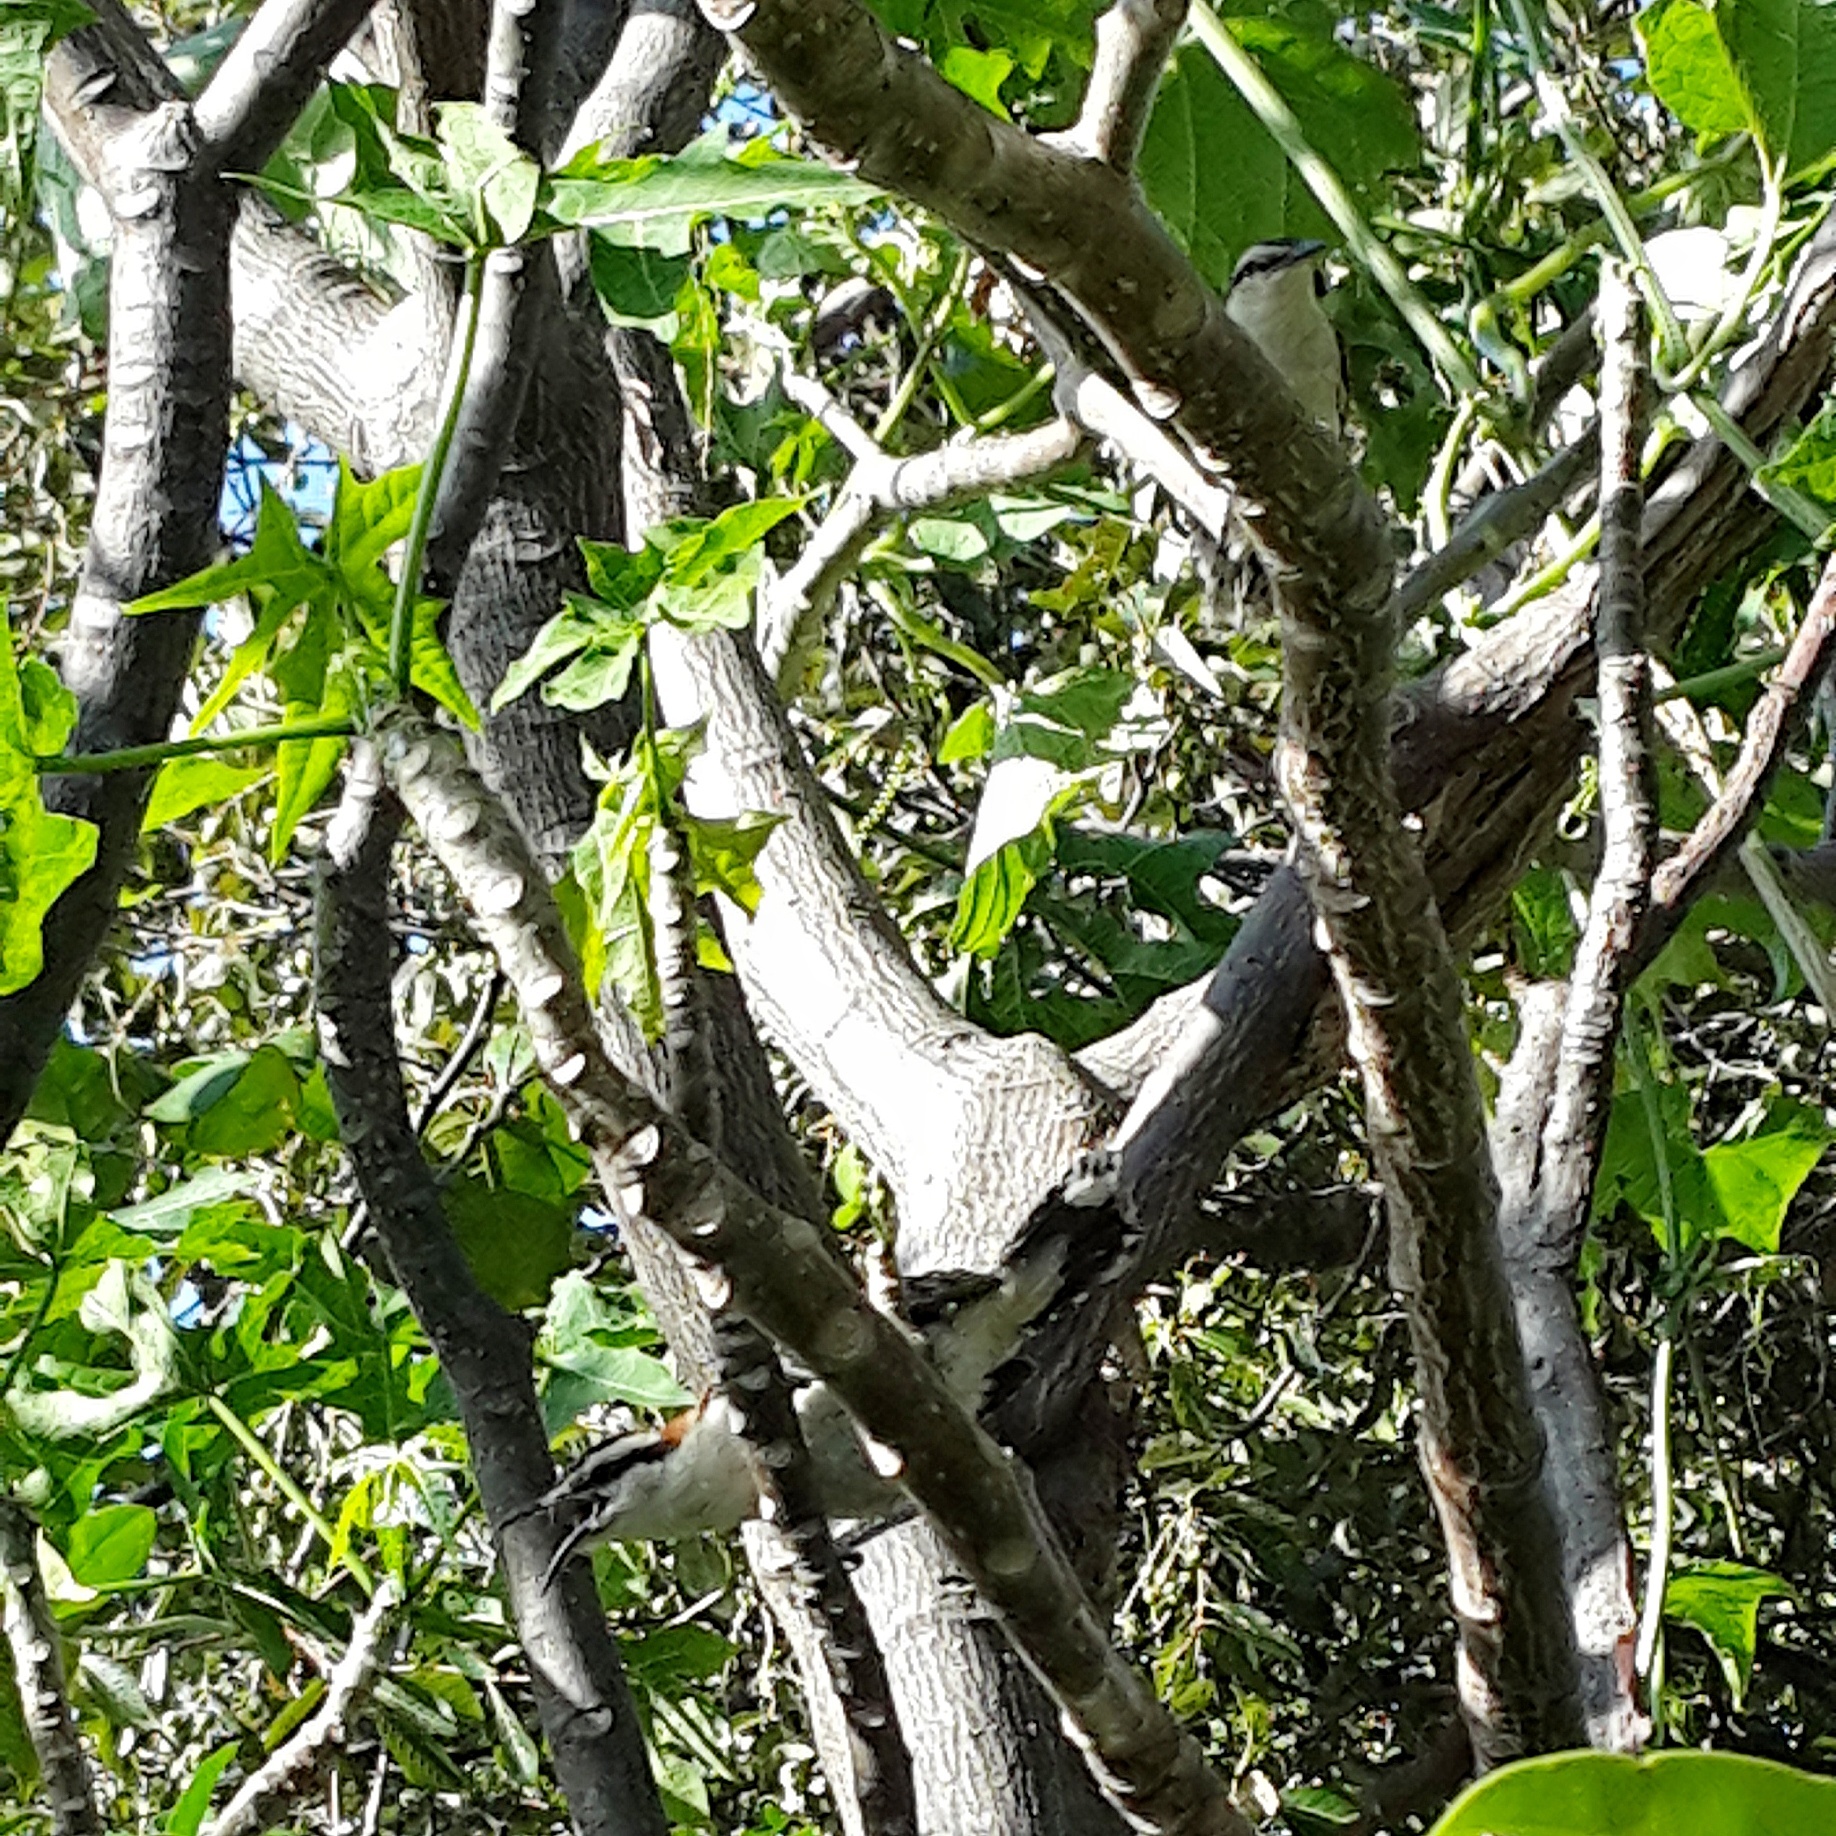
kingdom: Animalia
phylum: Chordata
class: Aves
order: Passeriformes
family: Troglodytidae
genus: Campylorhynchus
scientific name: Campylorhynchus rufinucha
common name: Rufous-naped wren
